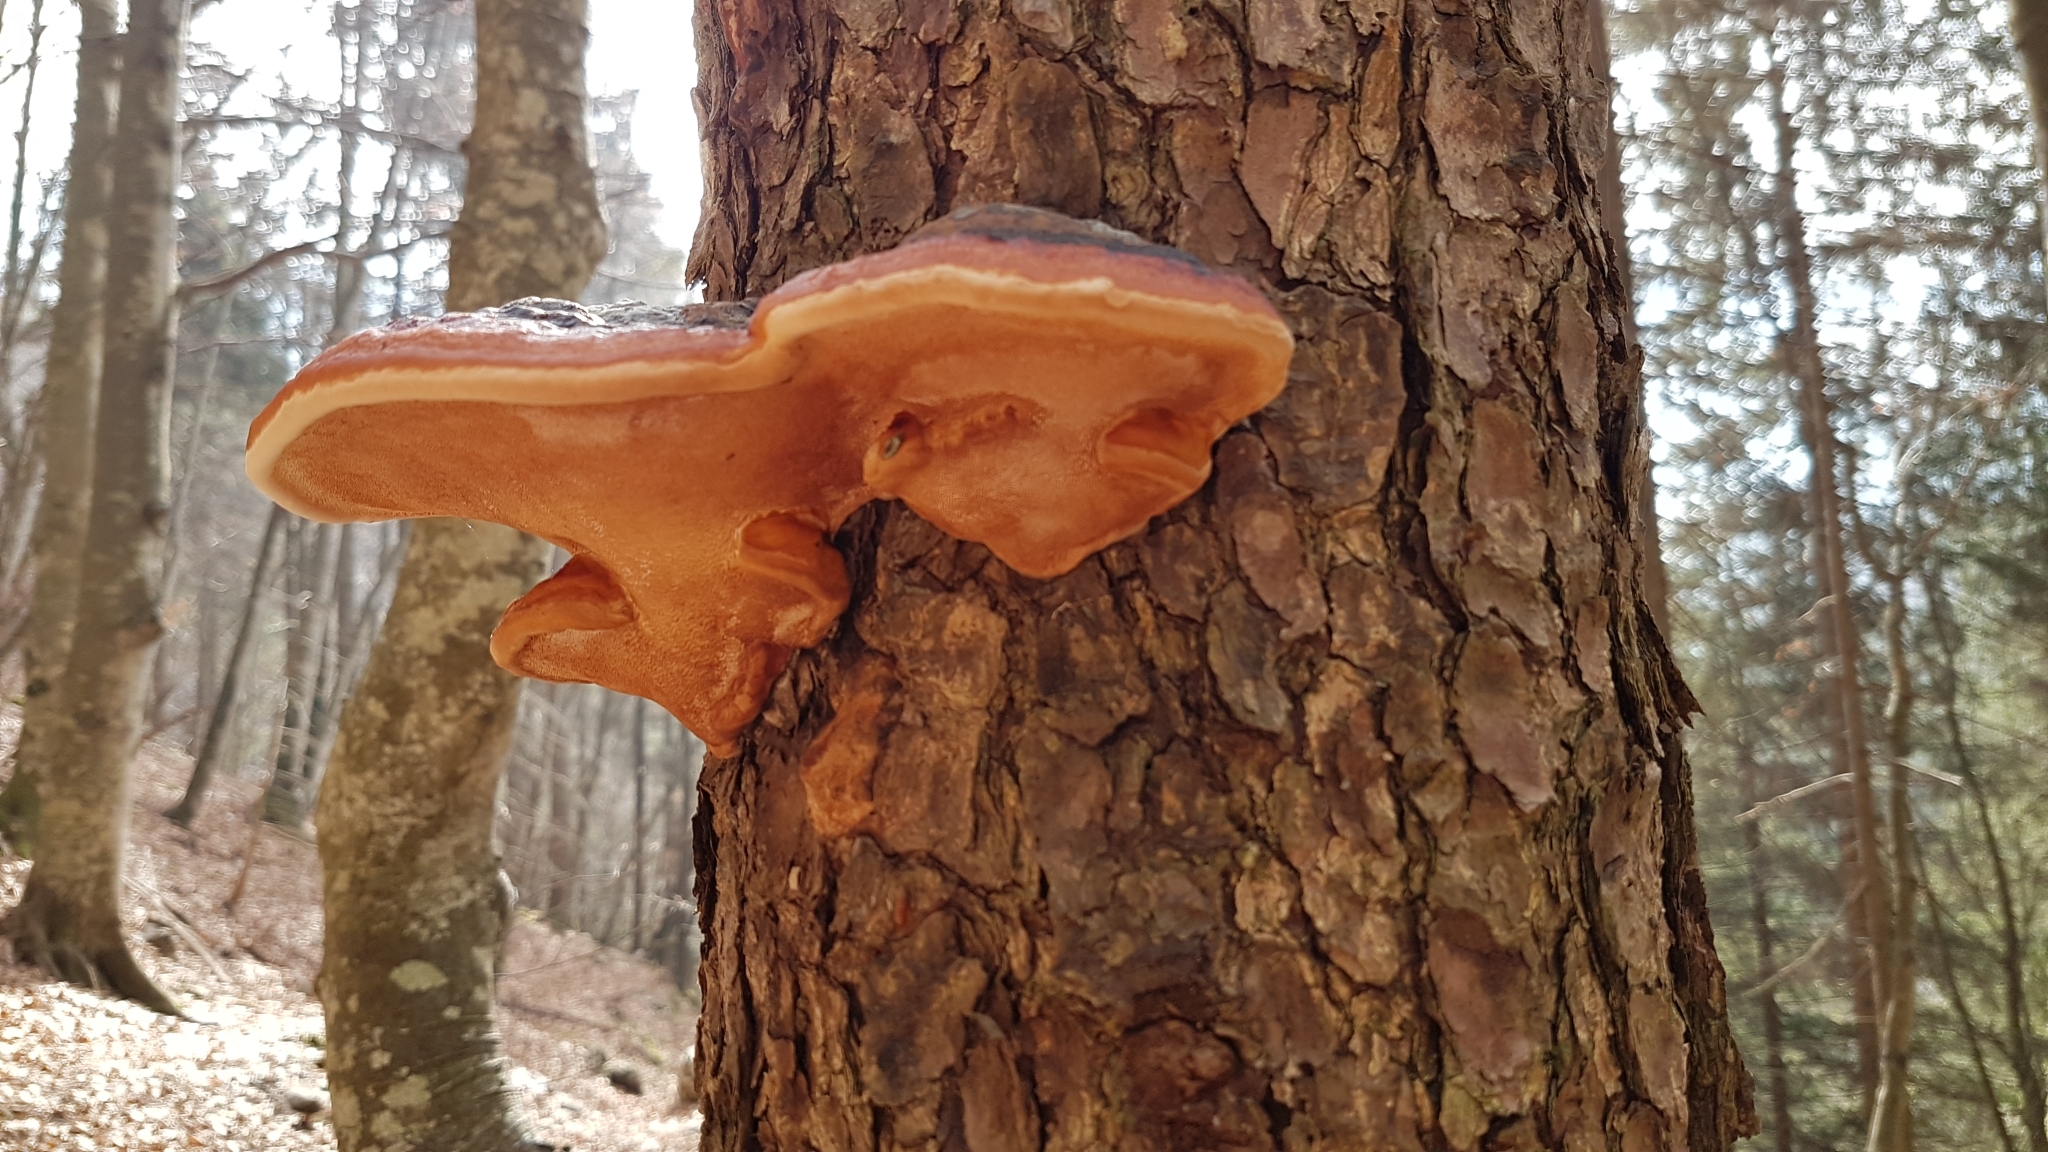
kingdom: Fungi
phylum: Basidiomycota
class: Agaricomycetes
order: Polyporales
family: Fomitopsidaceae
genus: Fomitopsis
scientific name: Fomitopsis pinicola
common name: Red-belted bracket
